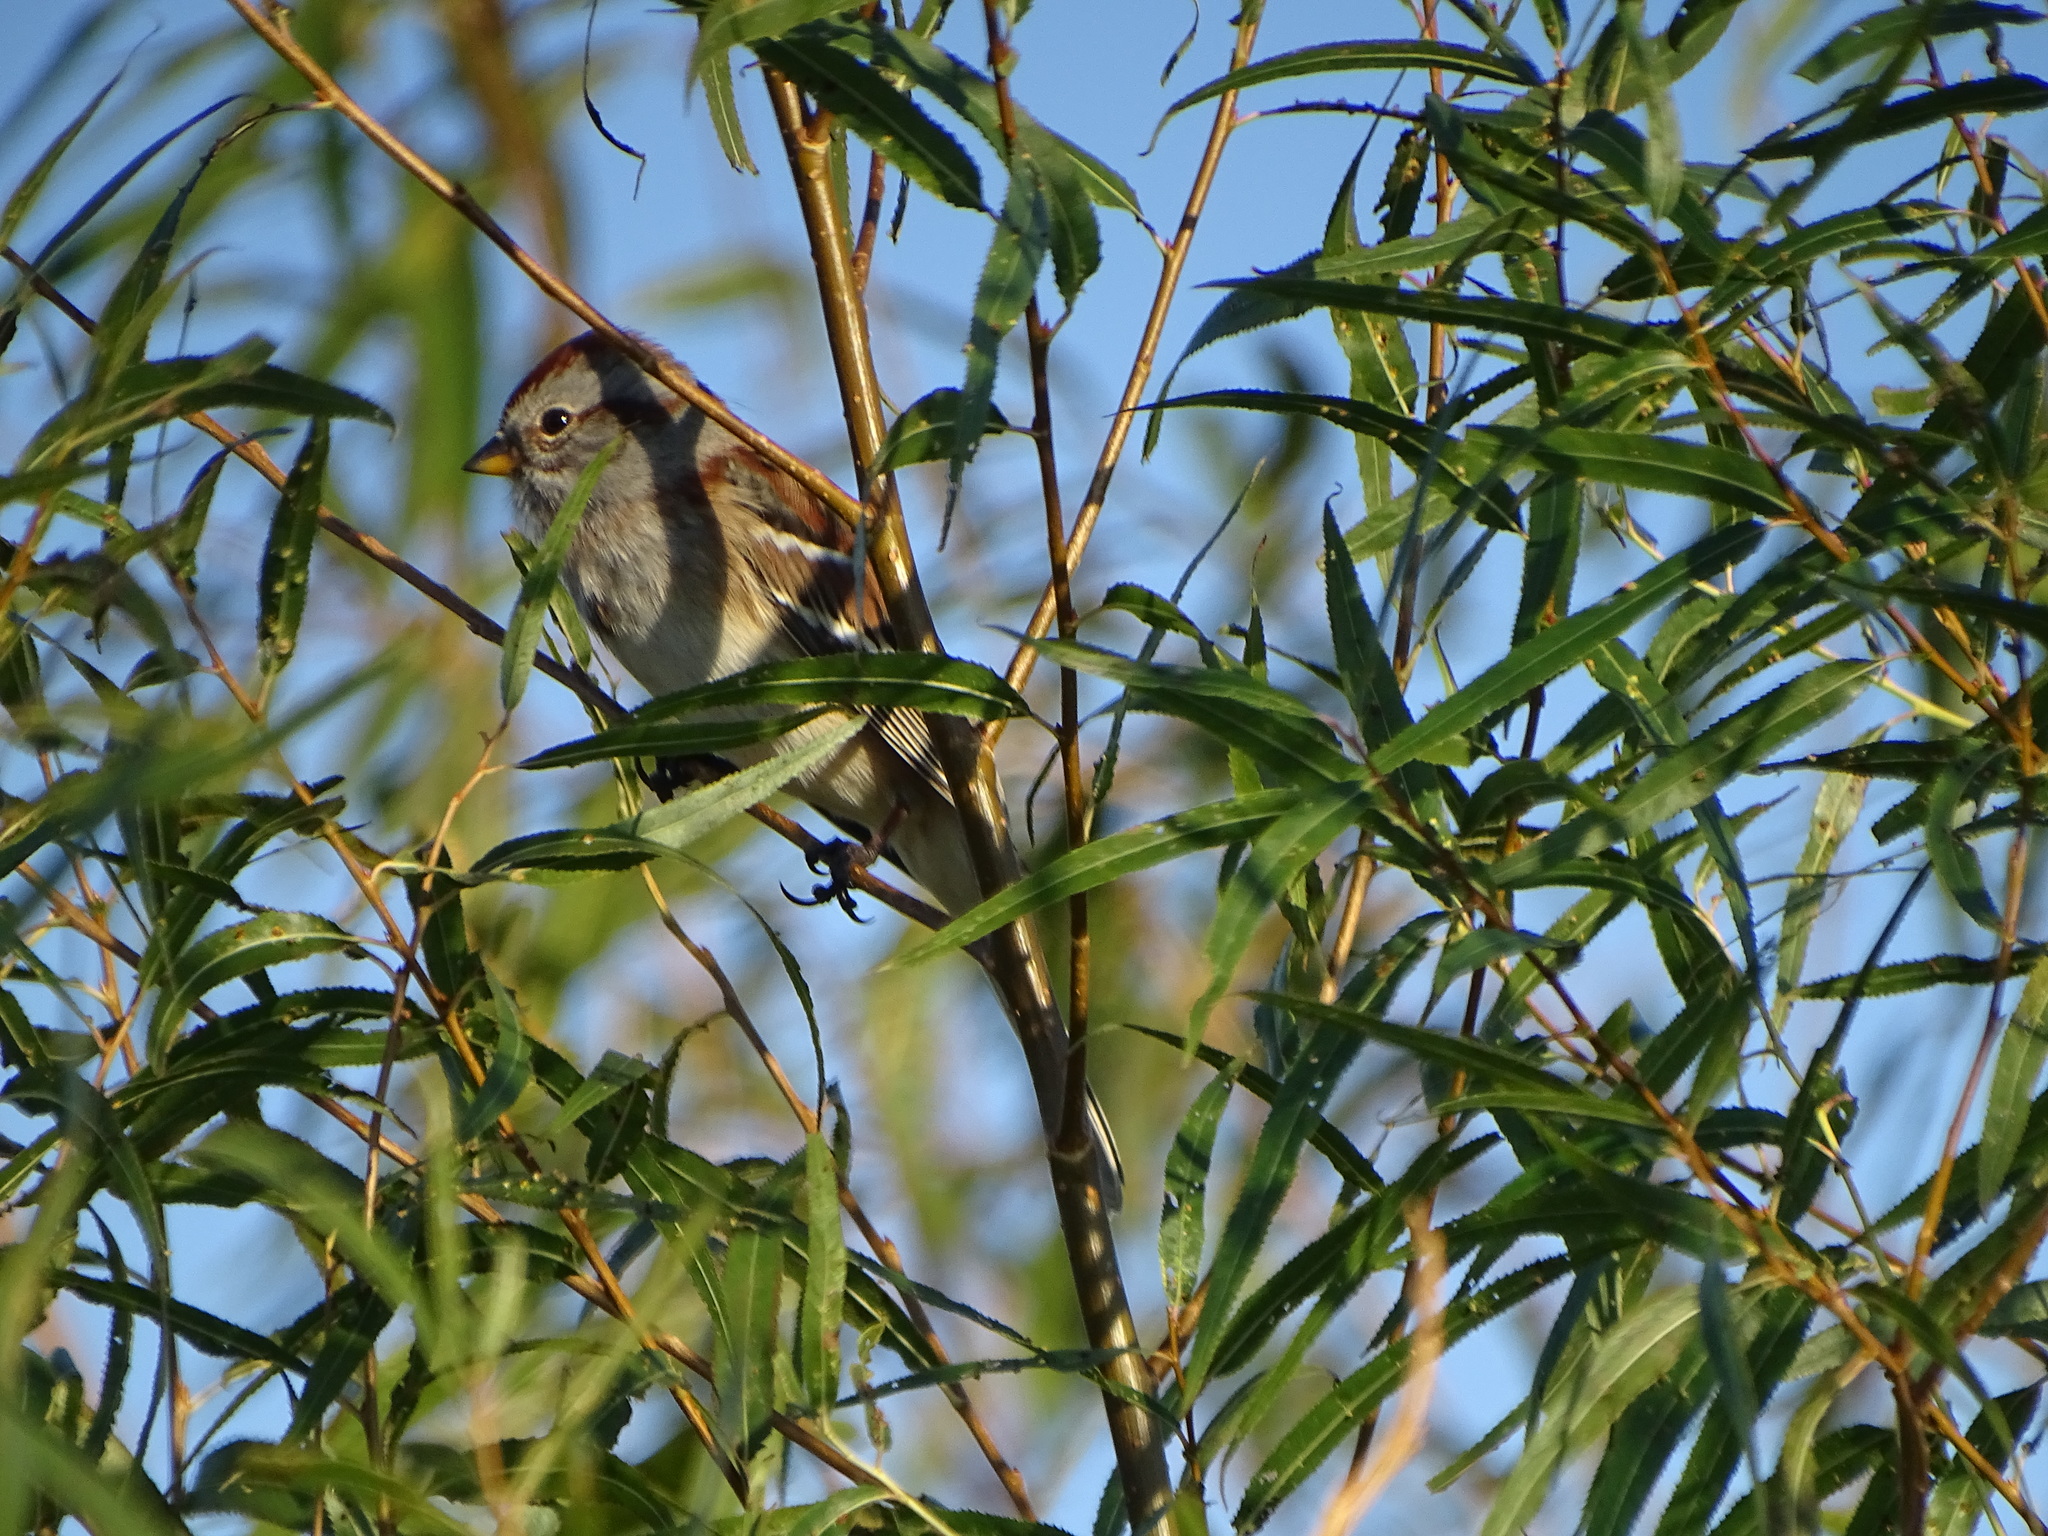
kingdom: Animalia
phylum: Chordata
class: Aves
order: Passeriformes
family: Passerellidae
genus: Spizelloides
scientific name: Spizelloides arborea
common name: American tree sparrow
